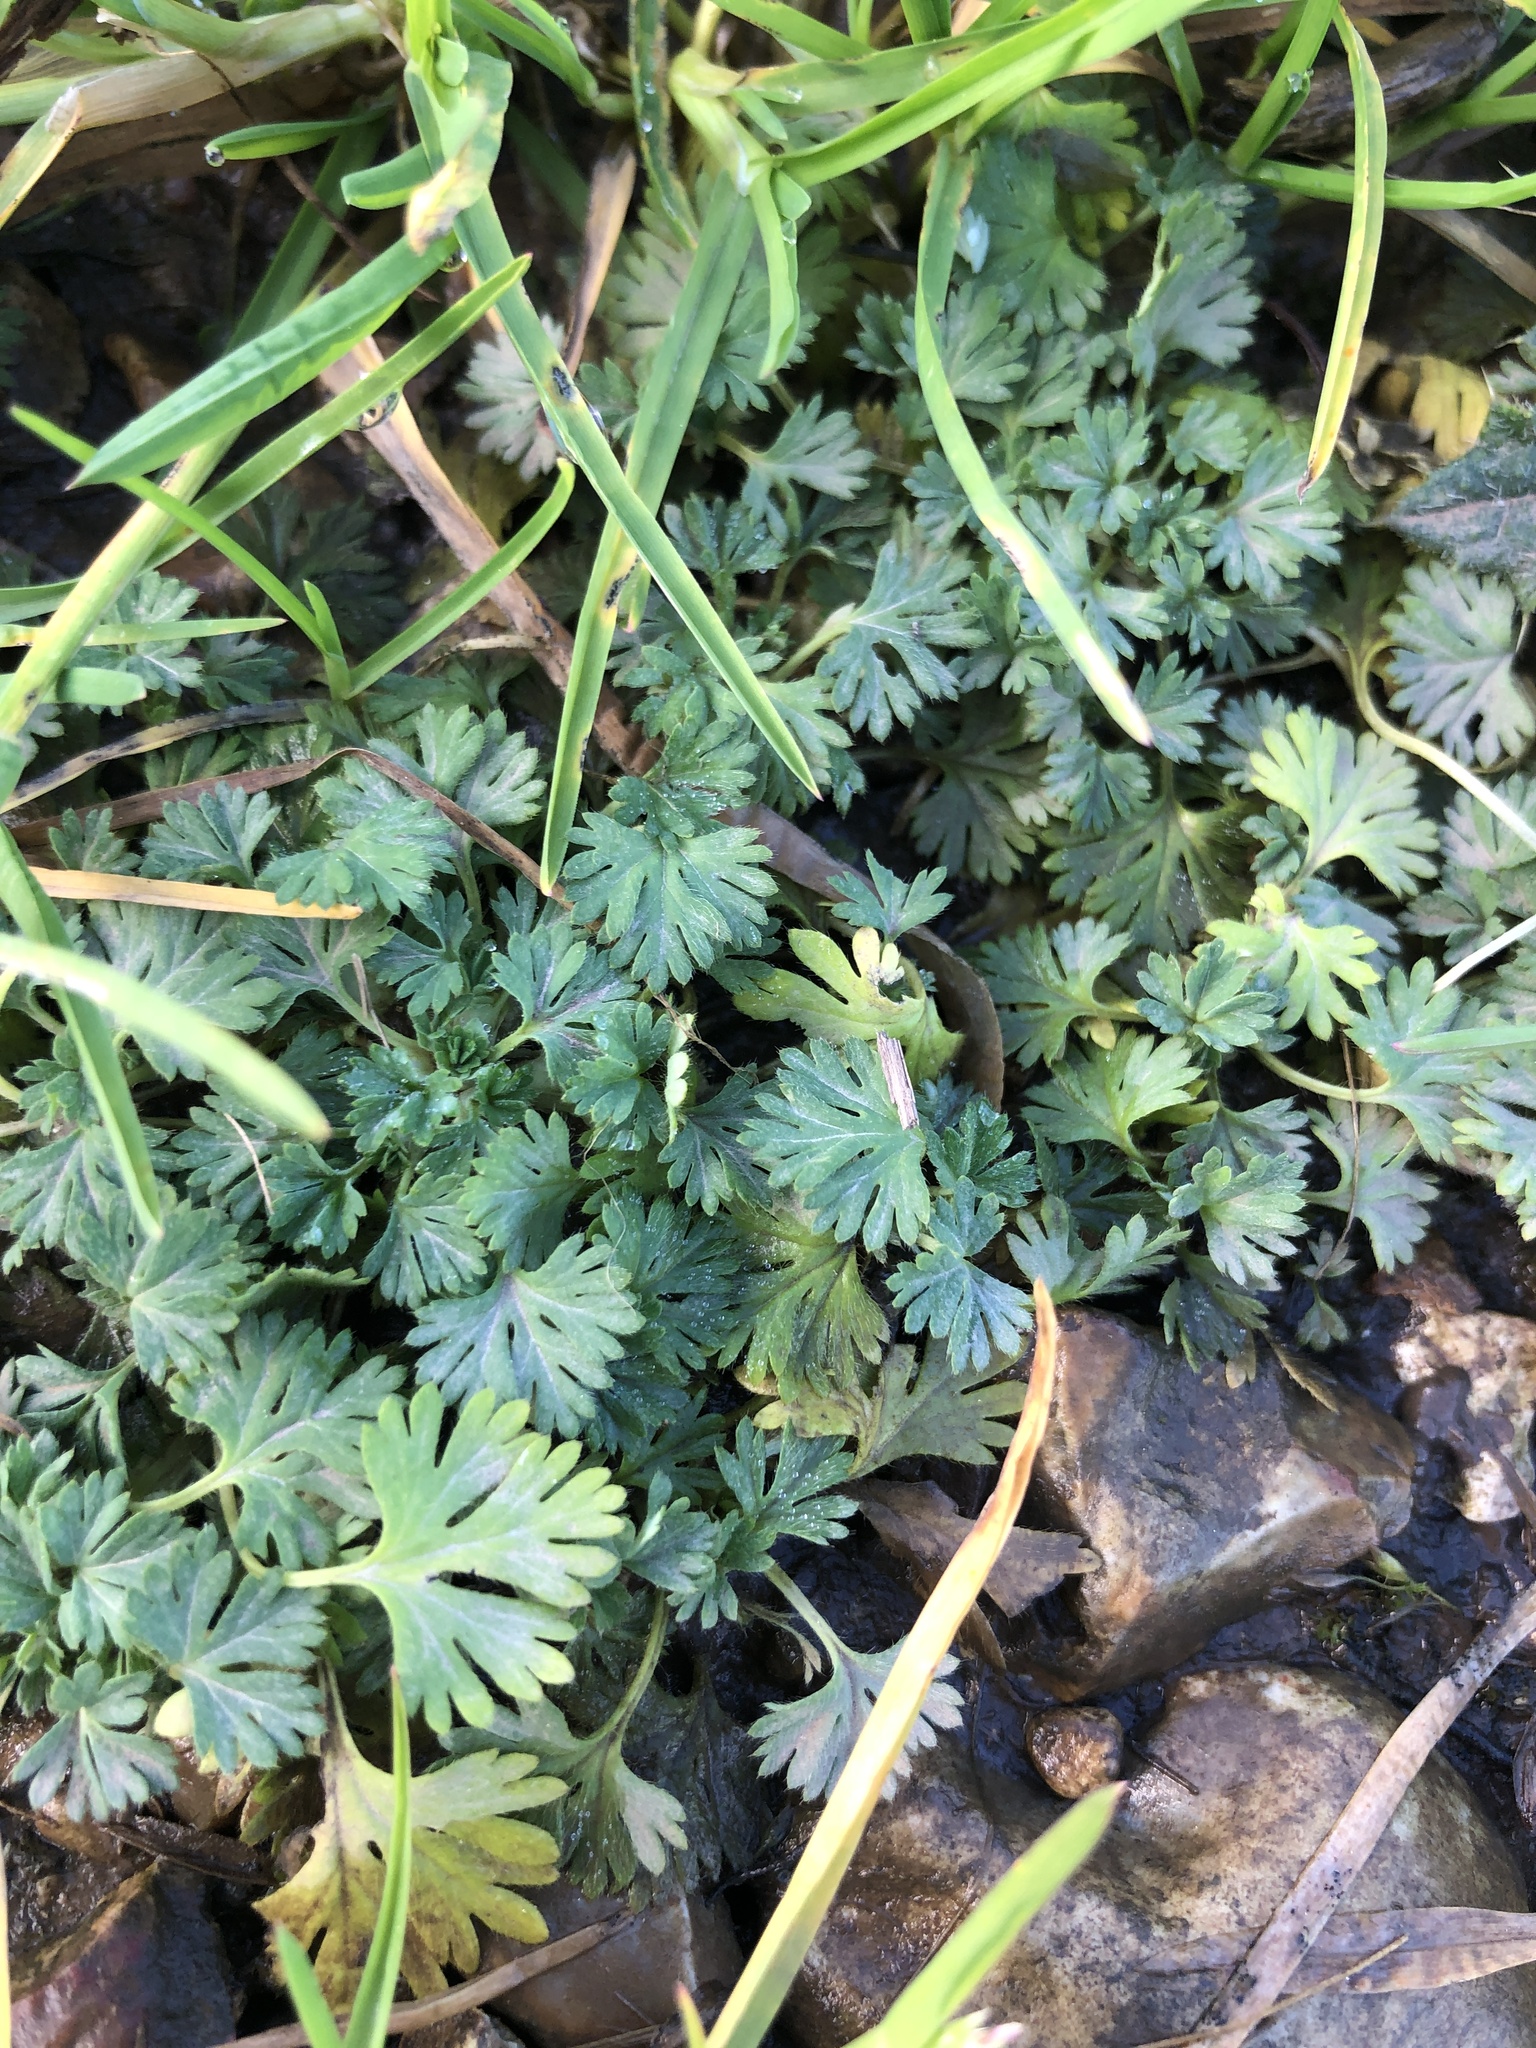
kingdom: Plantae
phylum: Tracheophyta
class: Magnoliopsida
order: Rosales
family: Rosaceae
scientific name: Rosaceae
